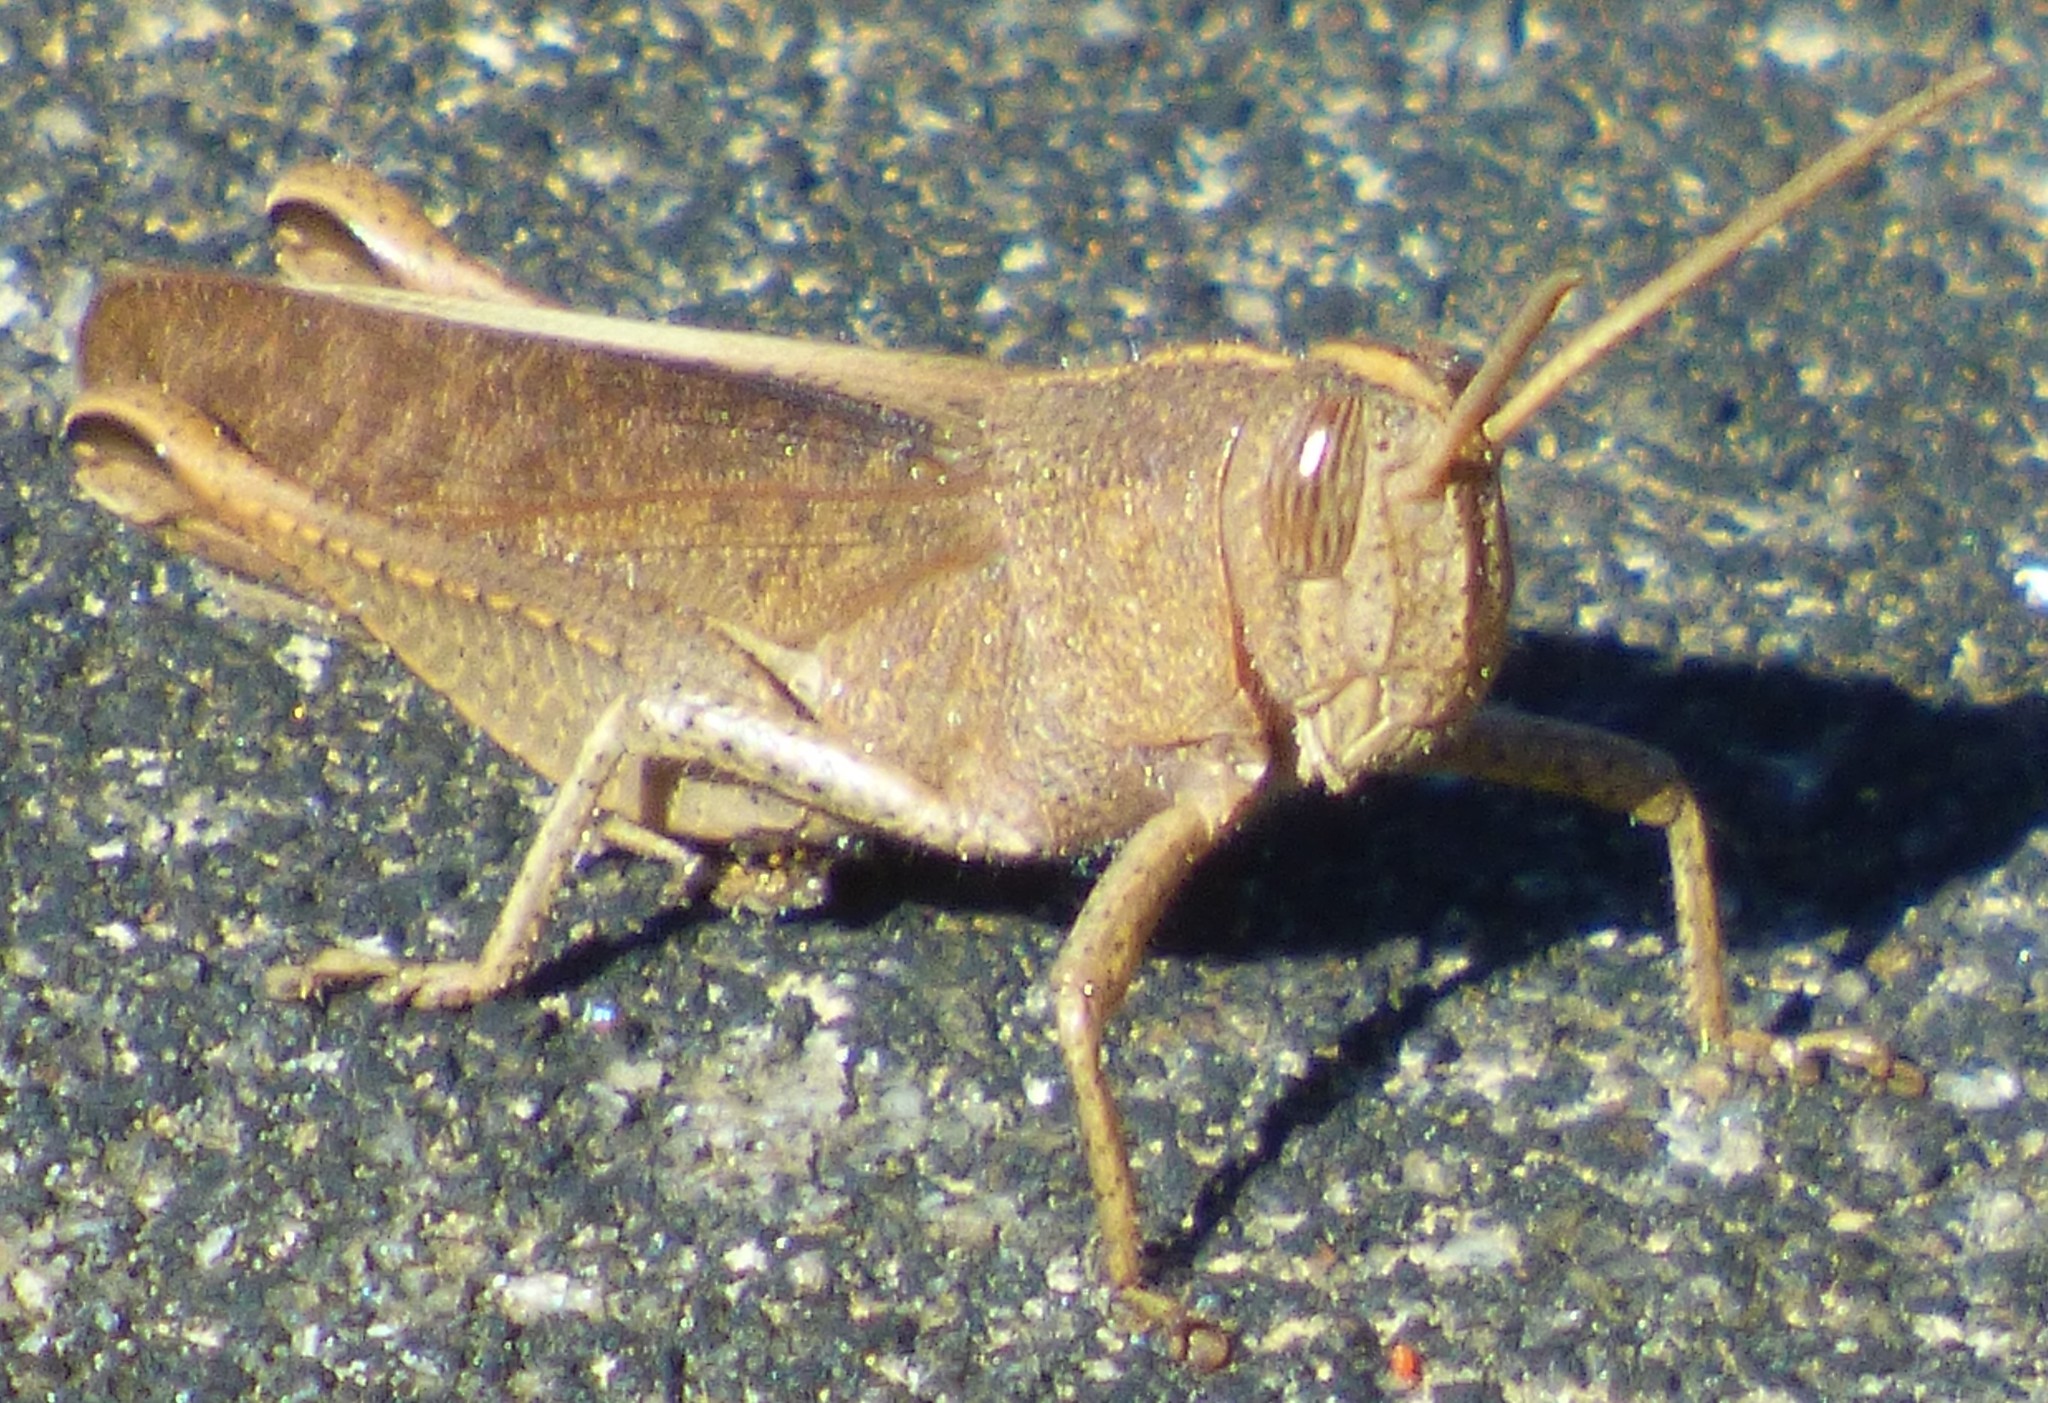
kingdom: Animalia
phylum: Arthropoda
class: Insecta
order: Orthoptera
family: Acrididae
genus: Schistocerca
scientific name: Schistocerca damnifica
